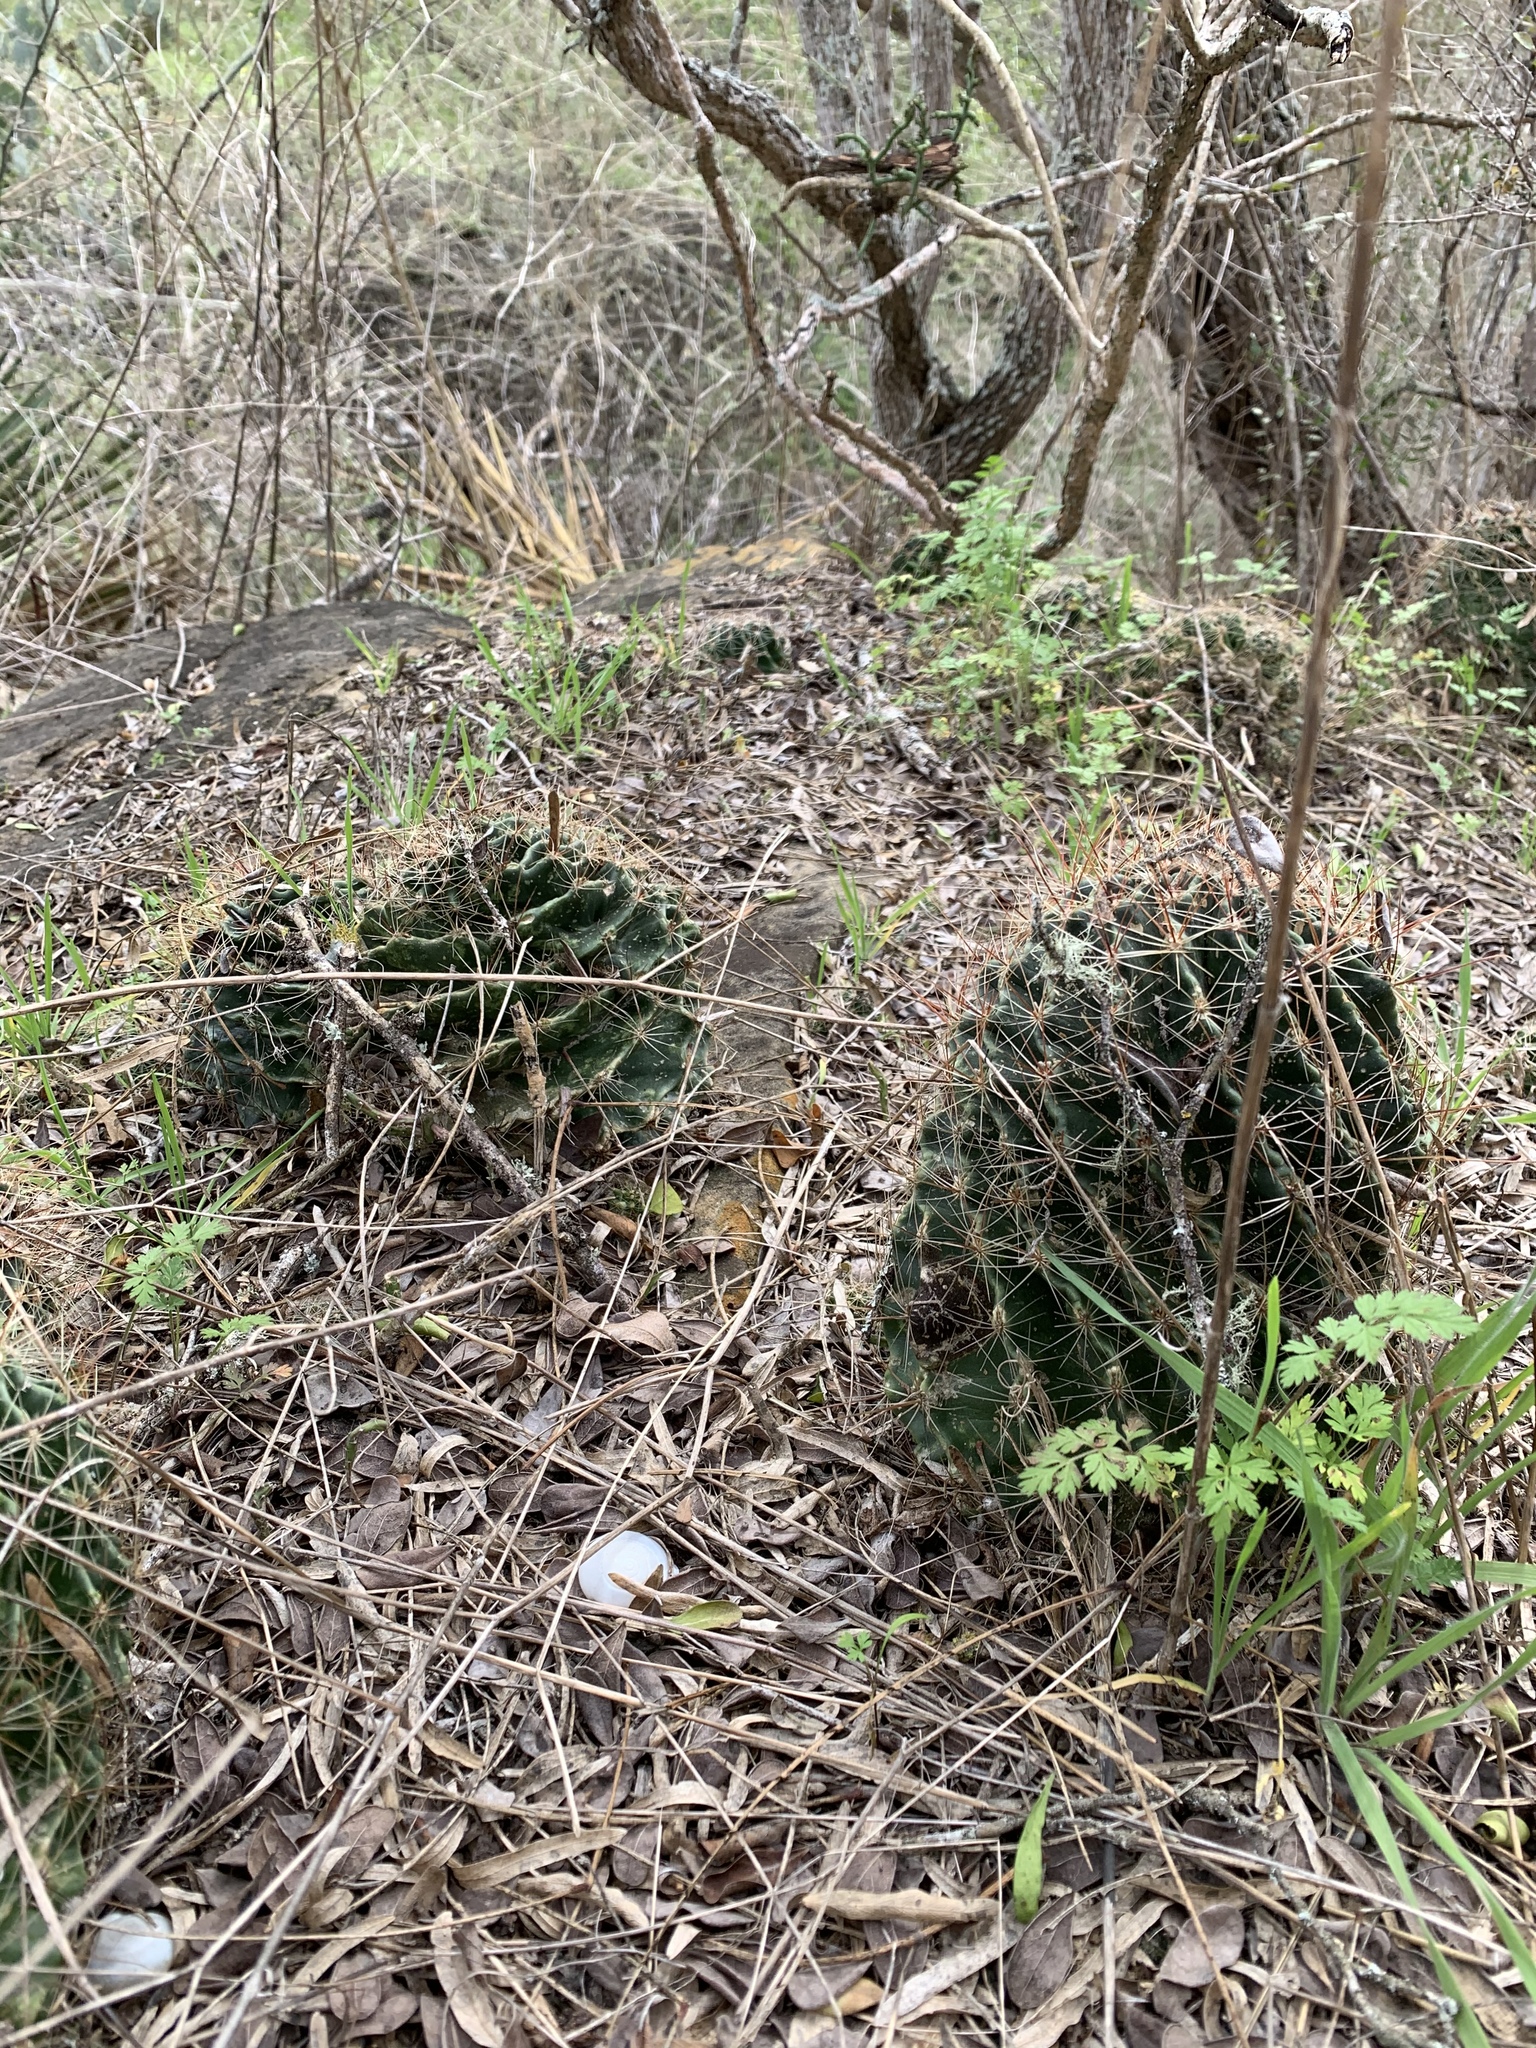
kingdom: Plantae
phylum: Tracheophyta
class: Magnoliopsida
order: Caryophyllales
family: Cactaceae
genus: Thelocactus
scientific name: Thelocactus setispinus
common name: Miniature barrel cactus
